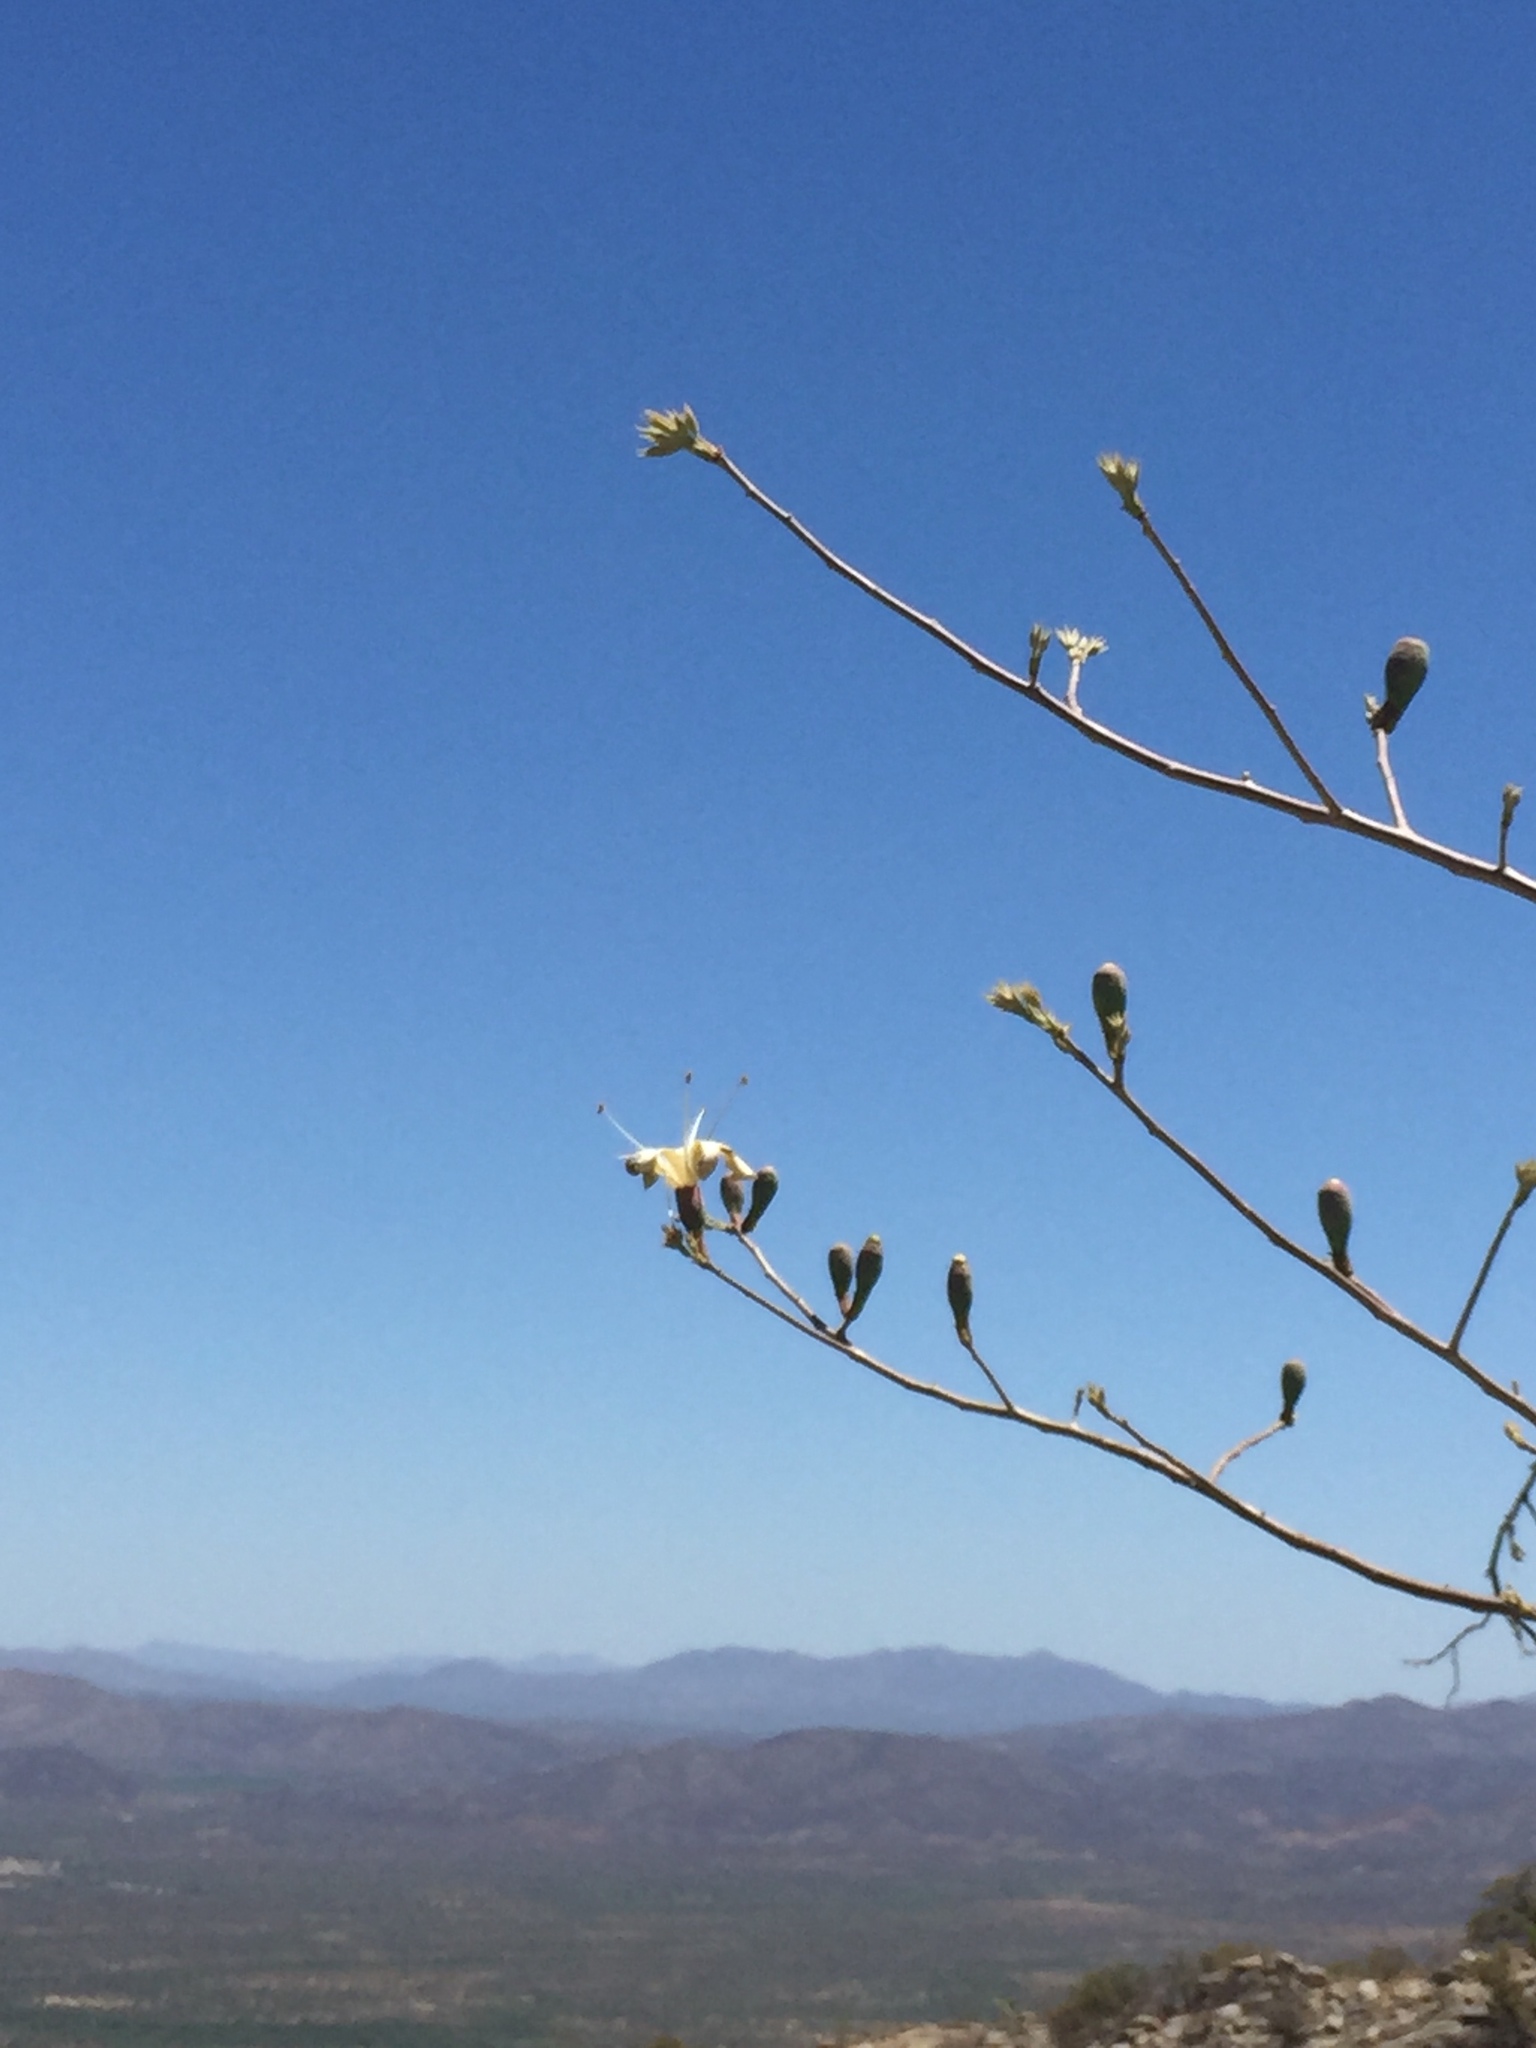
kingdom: Plantae
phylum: Tracheophyta
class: Magnoliopsida
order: Malvales
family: Malvaceae
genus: Ceiba
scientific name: Ceiba aesculifolia
